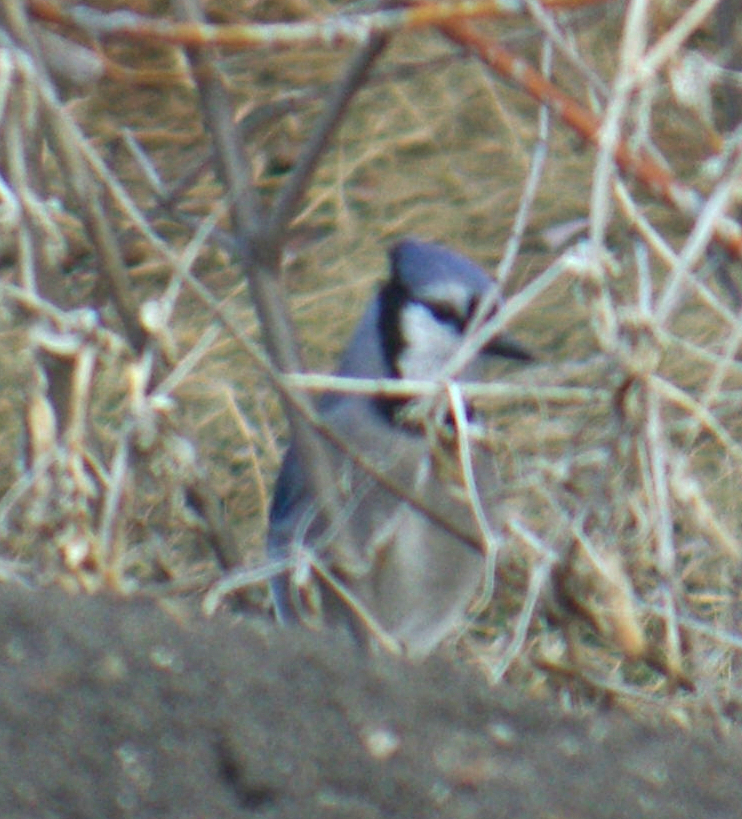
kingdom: Animalia
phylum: Chordata
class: Aves
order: Passeriformes
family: Corvidae
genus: Cyanocitta
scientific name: Cyanocitta cristata
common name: Blue jay
